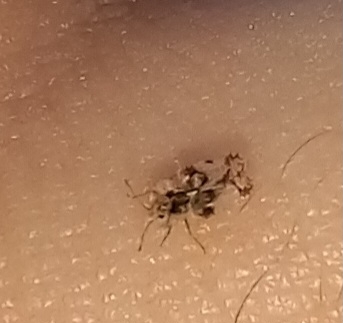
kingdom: Animalia
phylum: Arthropoda
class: Insecta
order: Hemiptera
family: Tingidae
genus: Corythucha
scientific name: Corythucha arcuata
